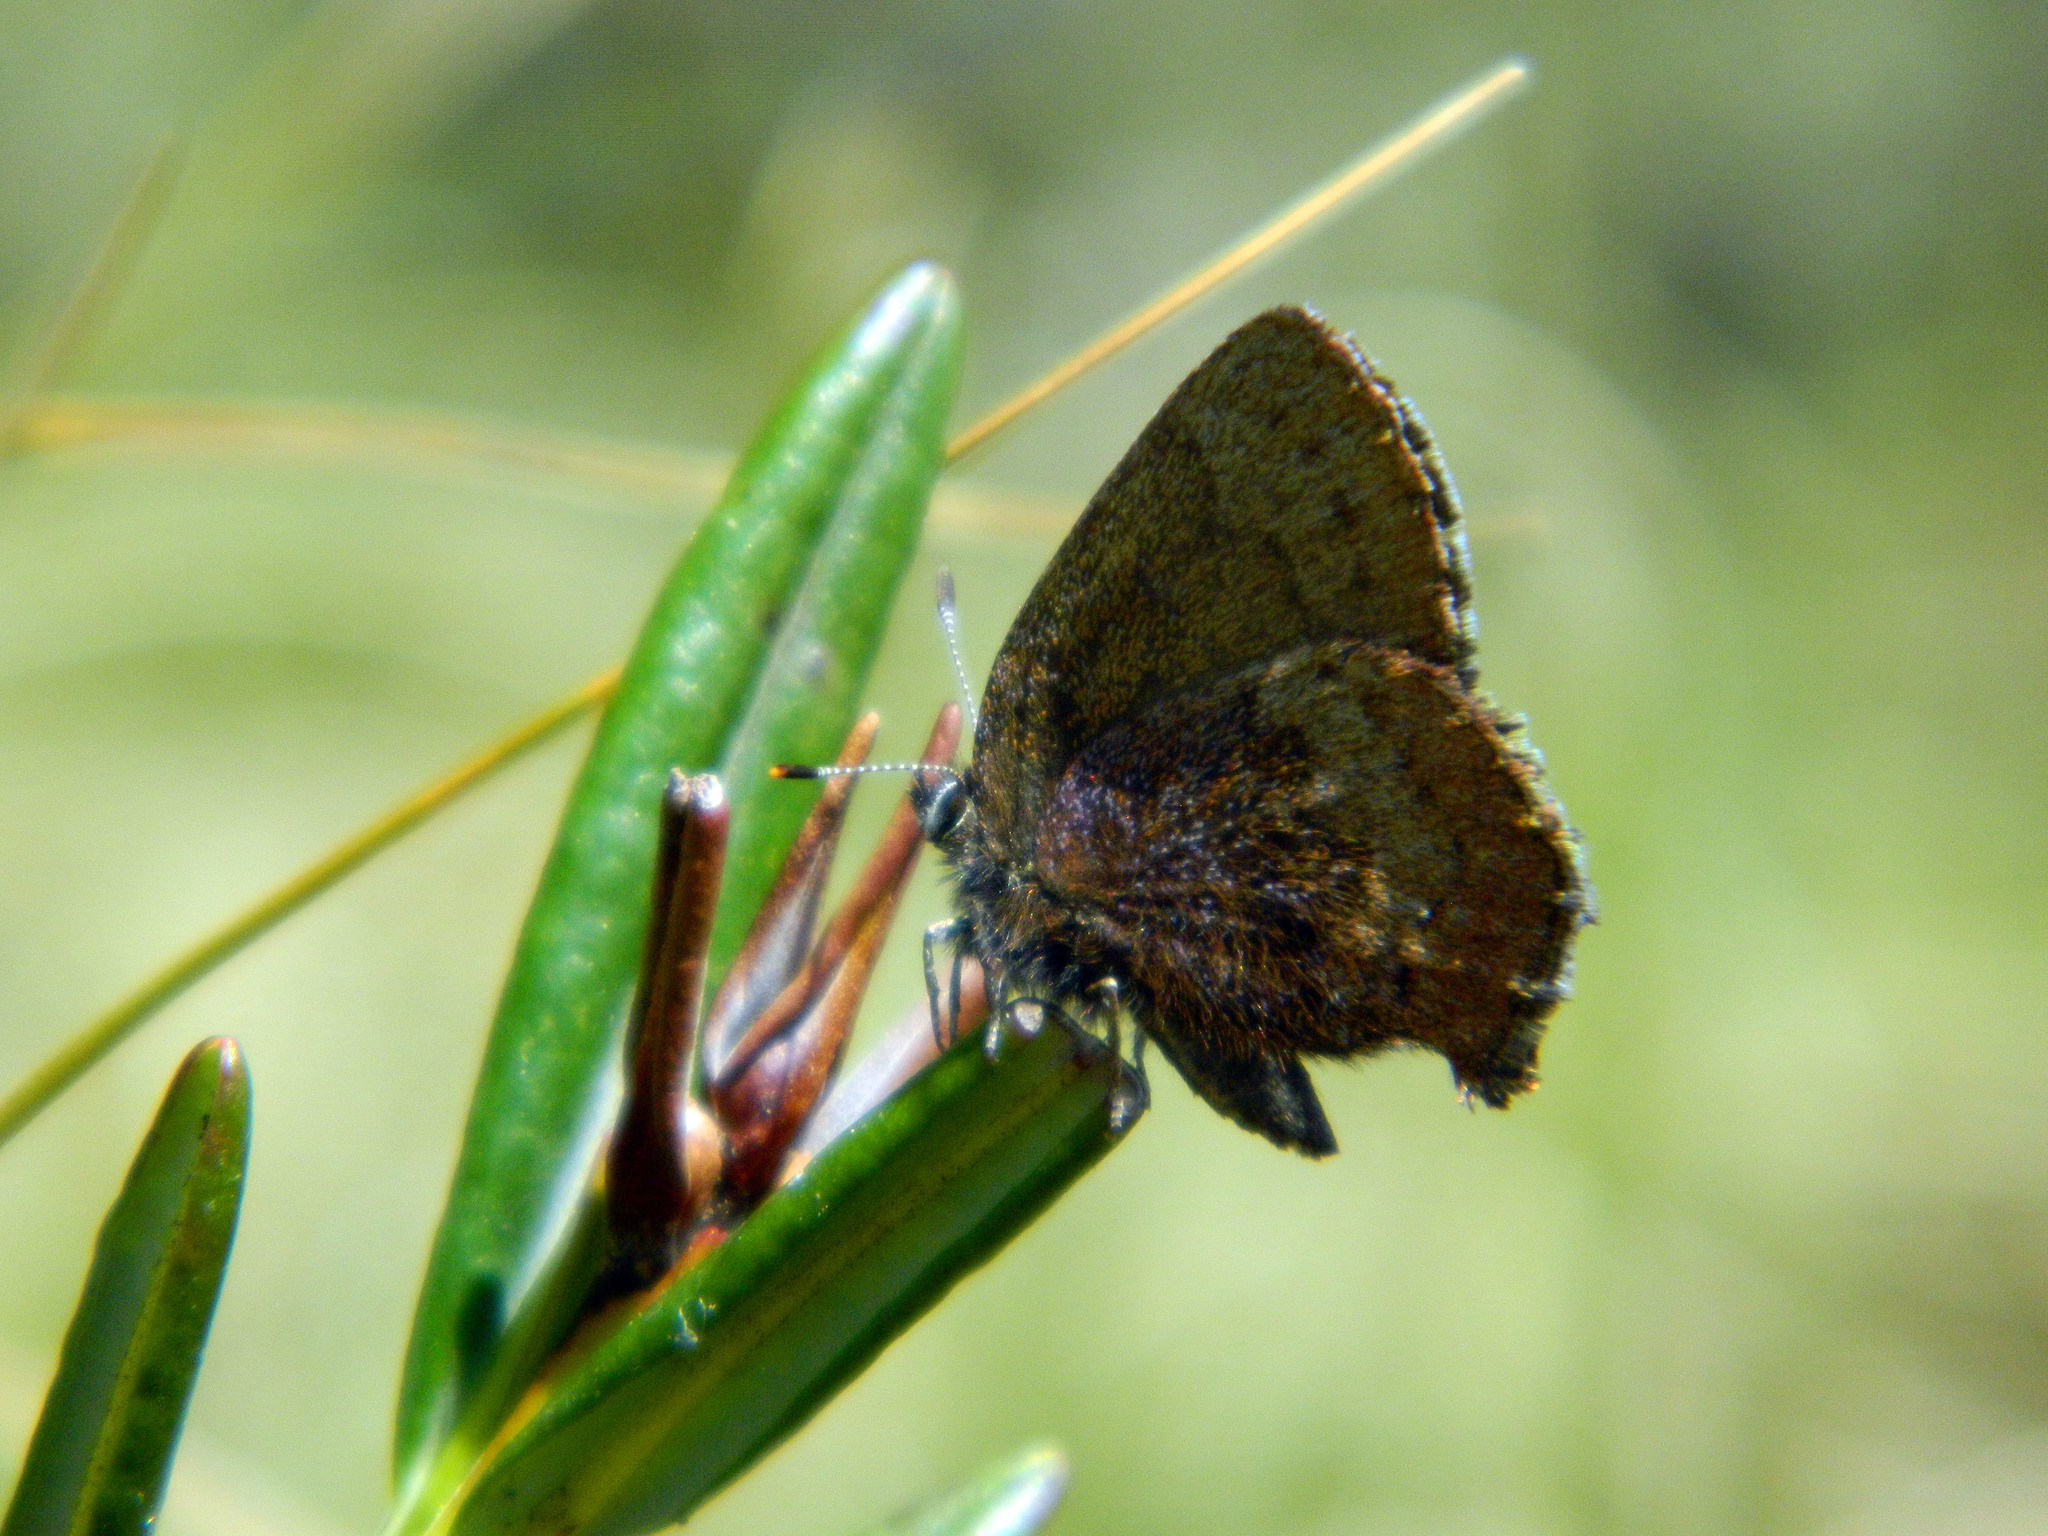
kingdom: Animalia
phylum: Arthropoda
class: Insecta
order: Lepidoptera
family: Lycaenidae
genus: Incisalia
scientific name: Incisalia irioides
